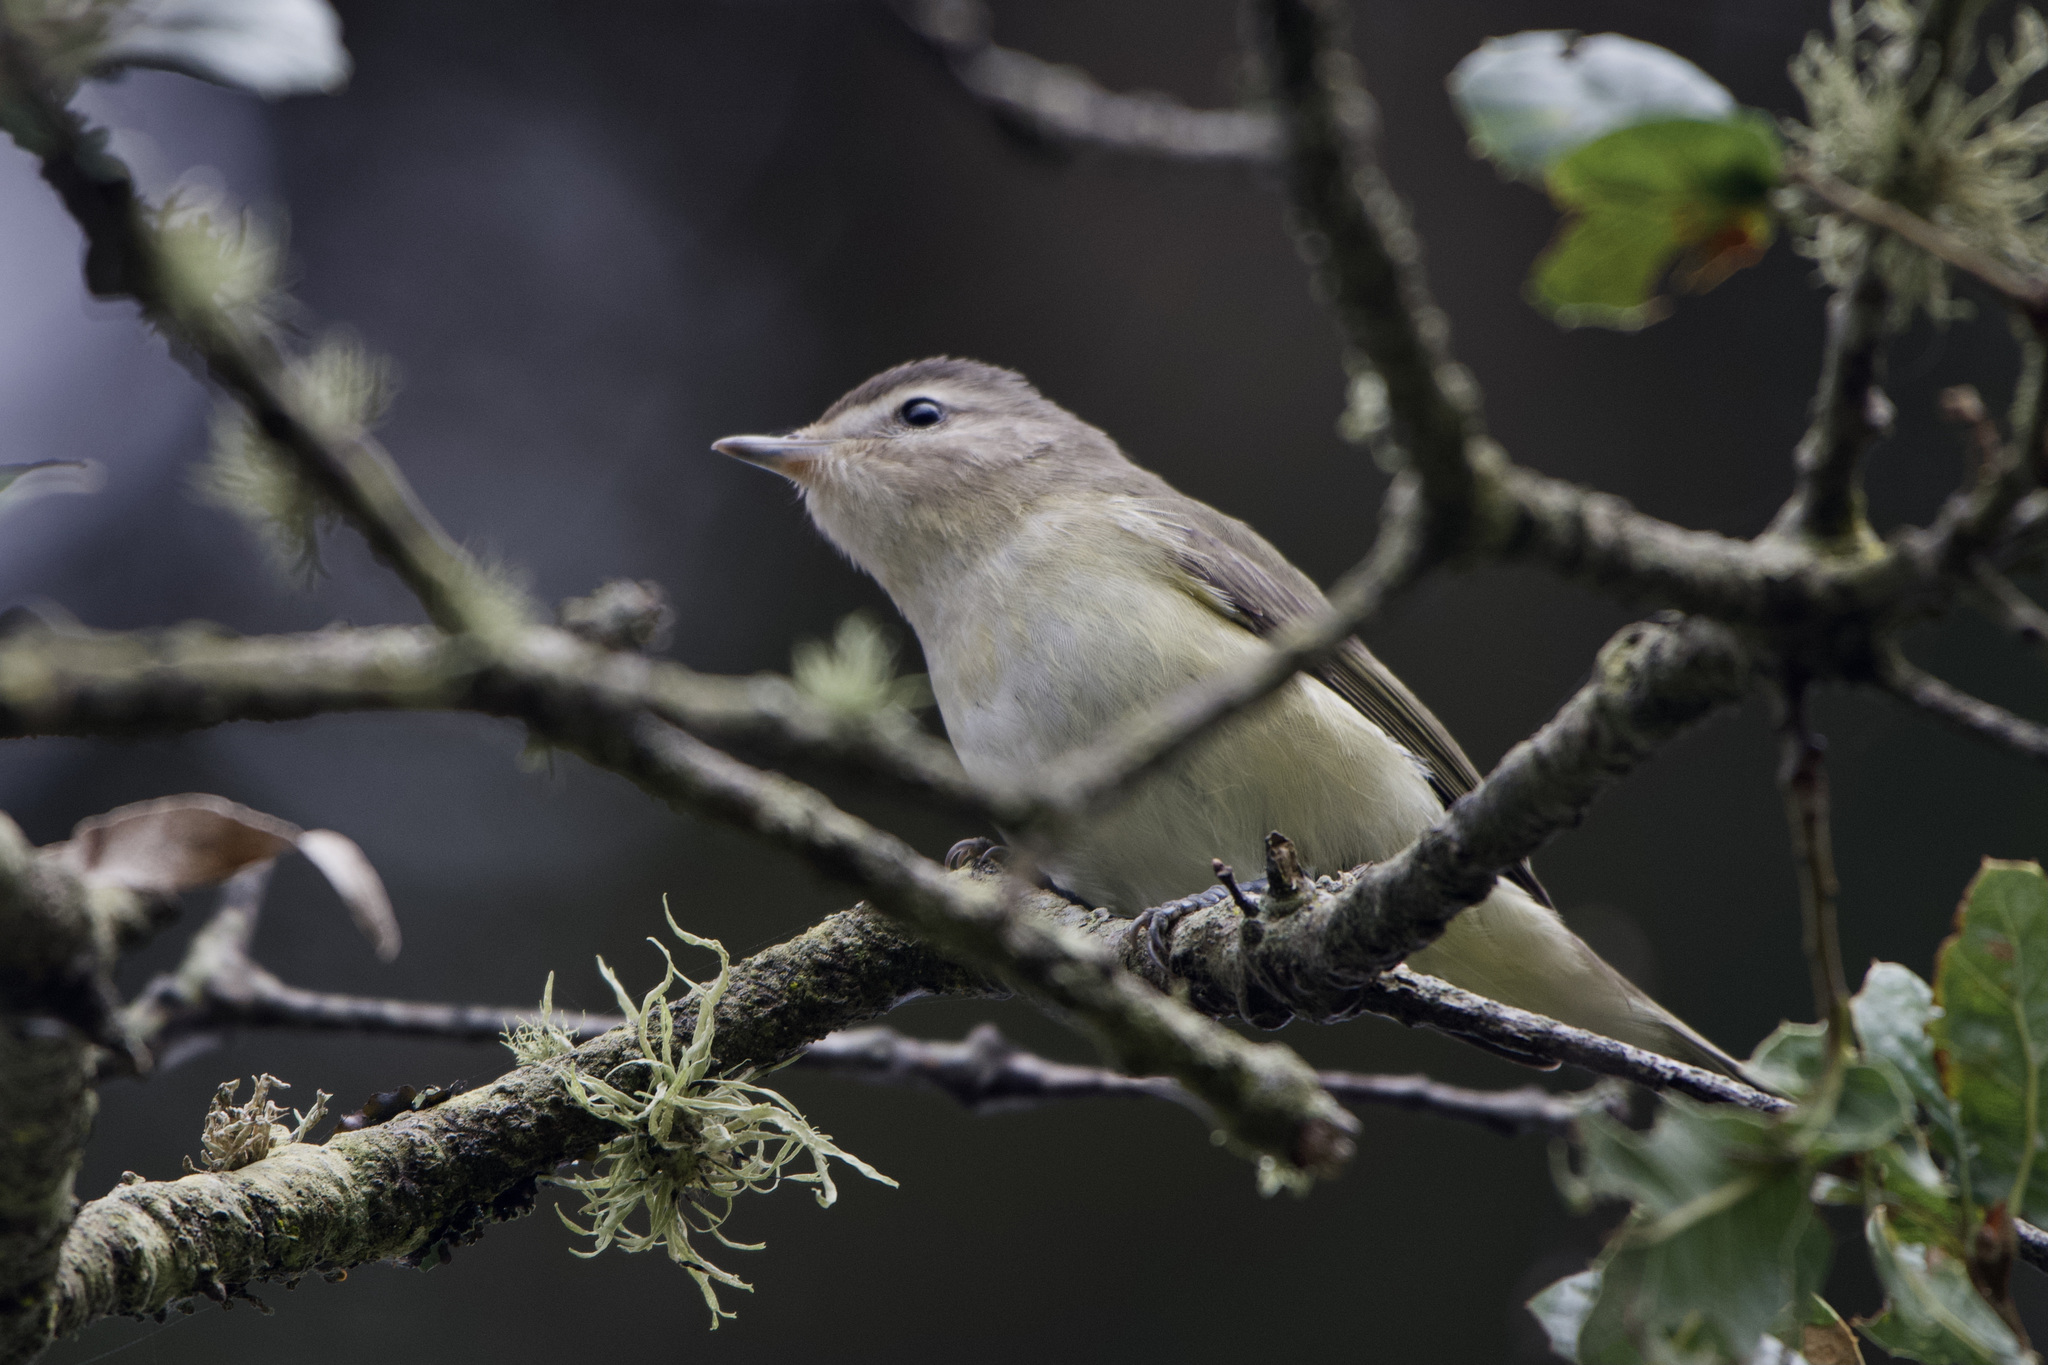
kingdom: Animalia
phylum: Chordata
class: Aves
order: Passeriformes
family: Vireonidae
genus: Vireo
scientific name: Vireo gilvus
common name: Warbling vireo
